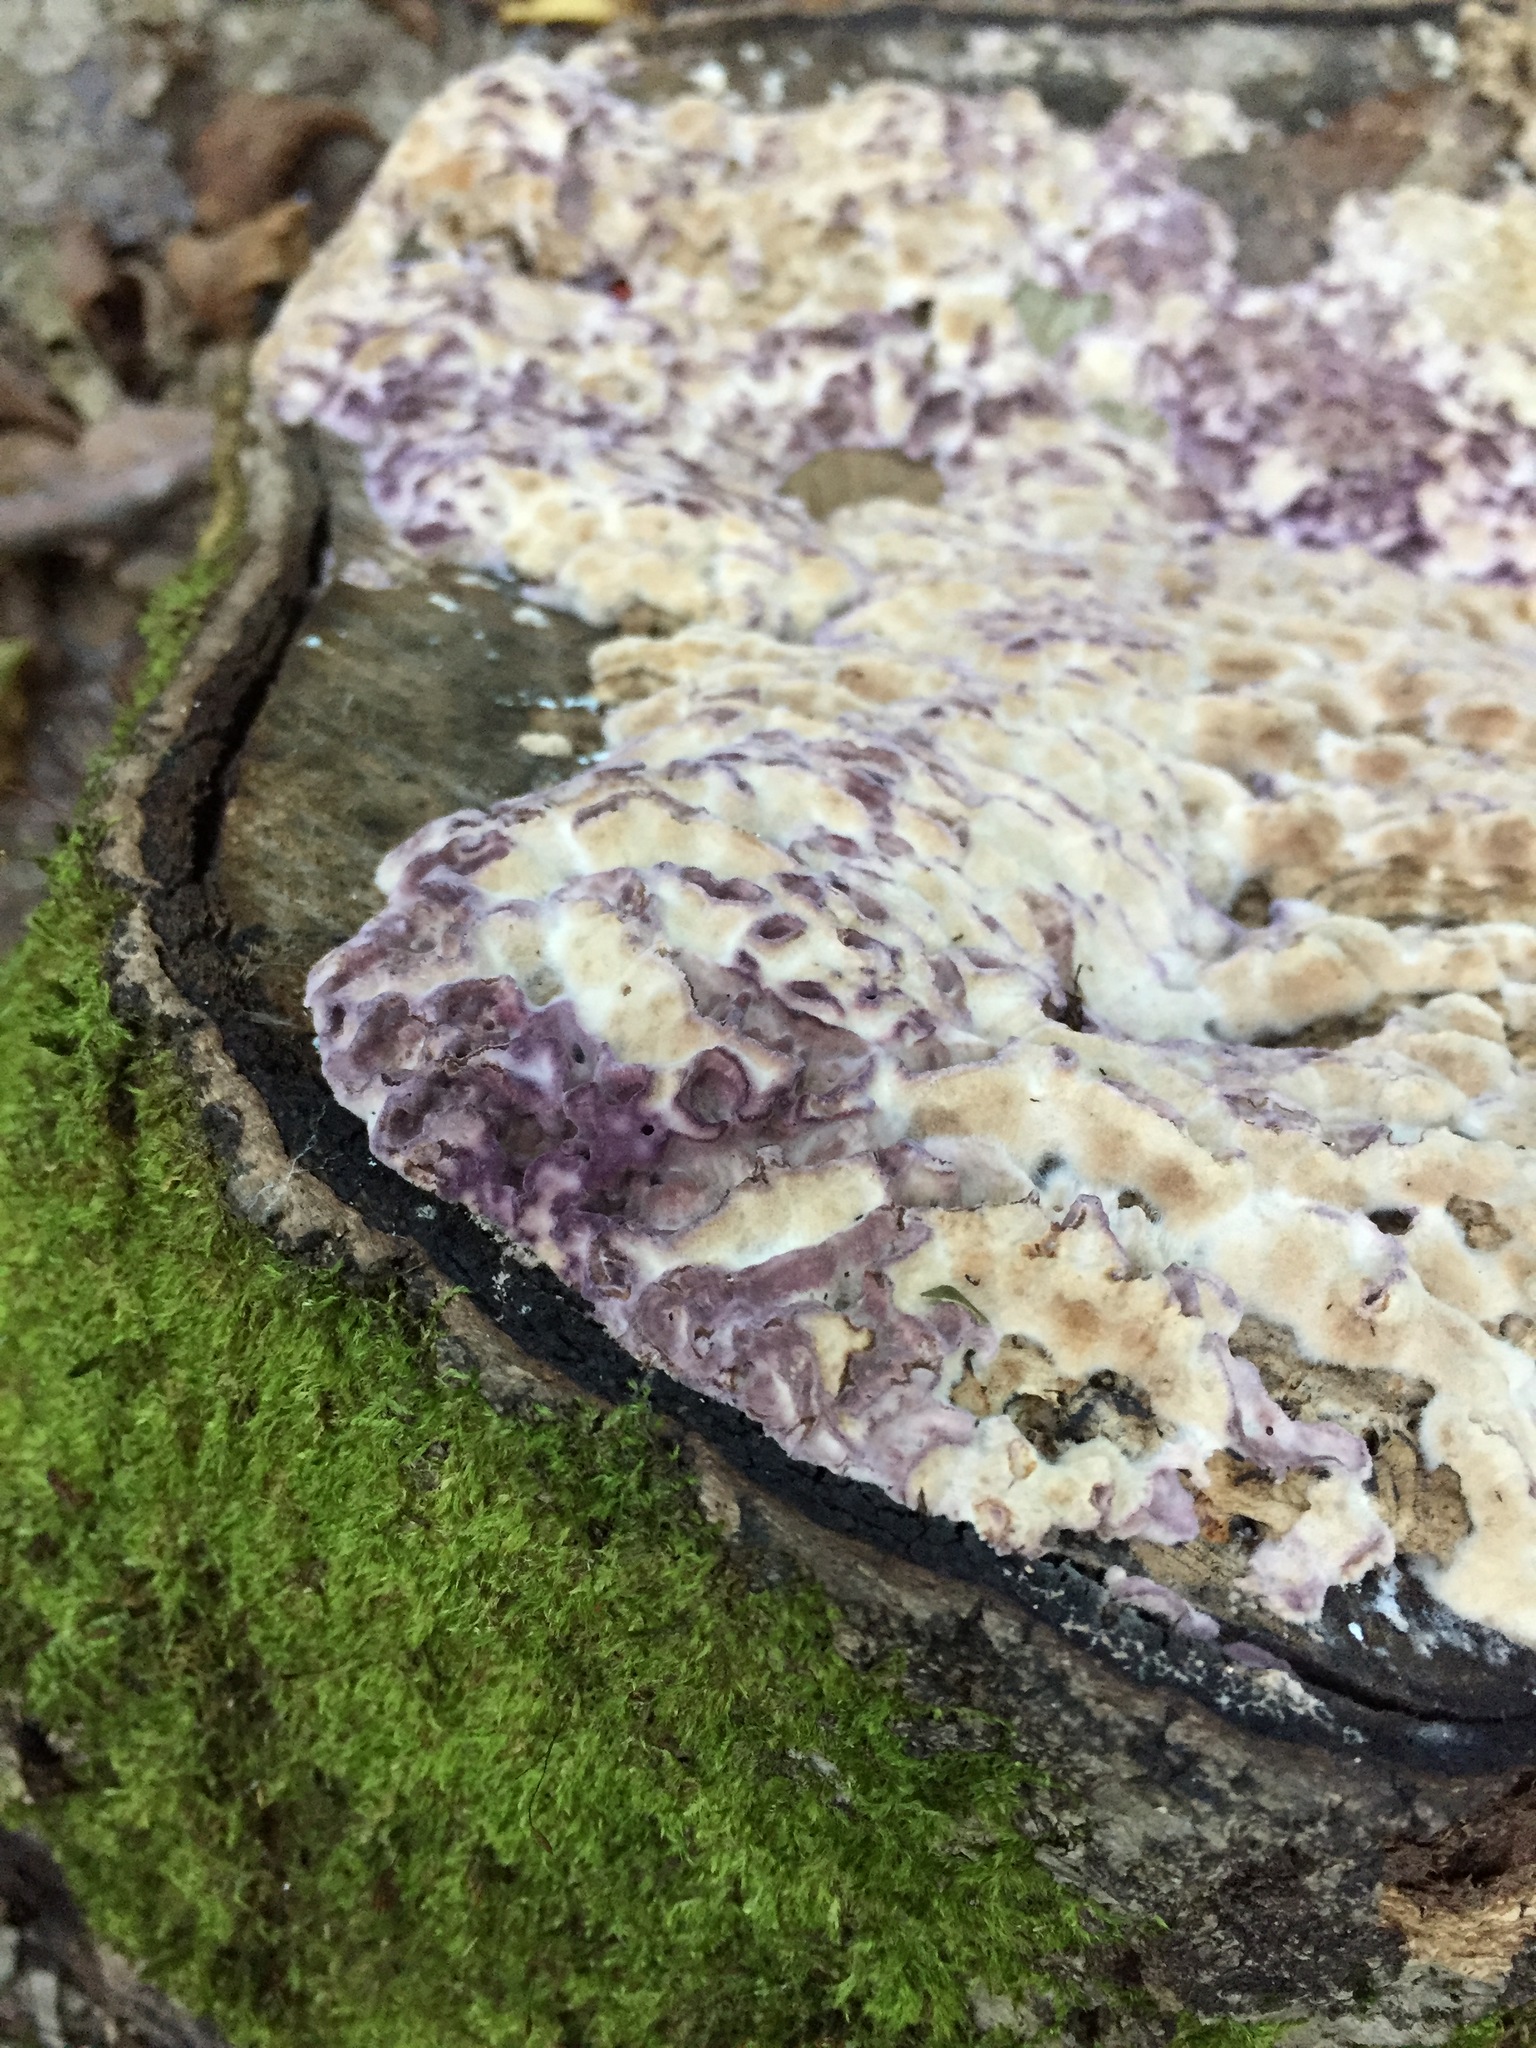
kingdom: Fungi
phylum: Basidiomycota
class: Agaricomycetes
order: Agaricales
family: Cyphellaceae
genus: Chondrostereum
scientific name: Chondrostereum purpureum
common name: Silver leaf disease
